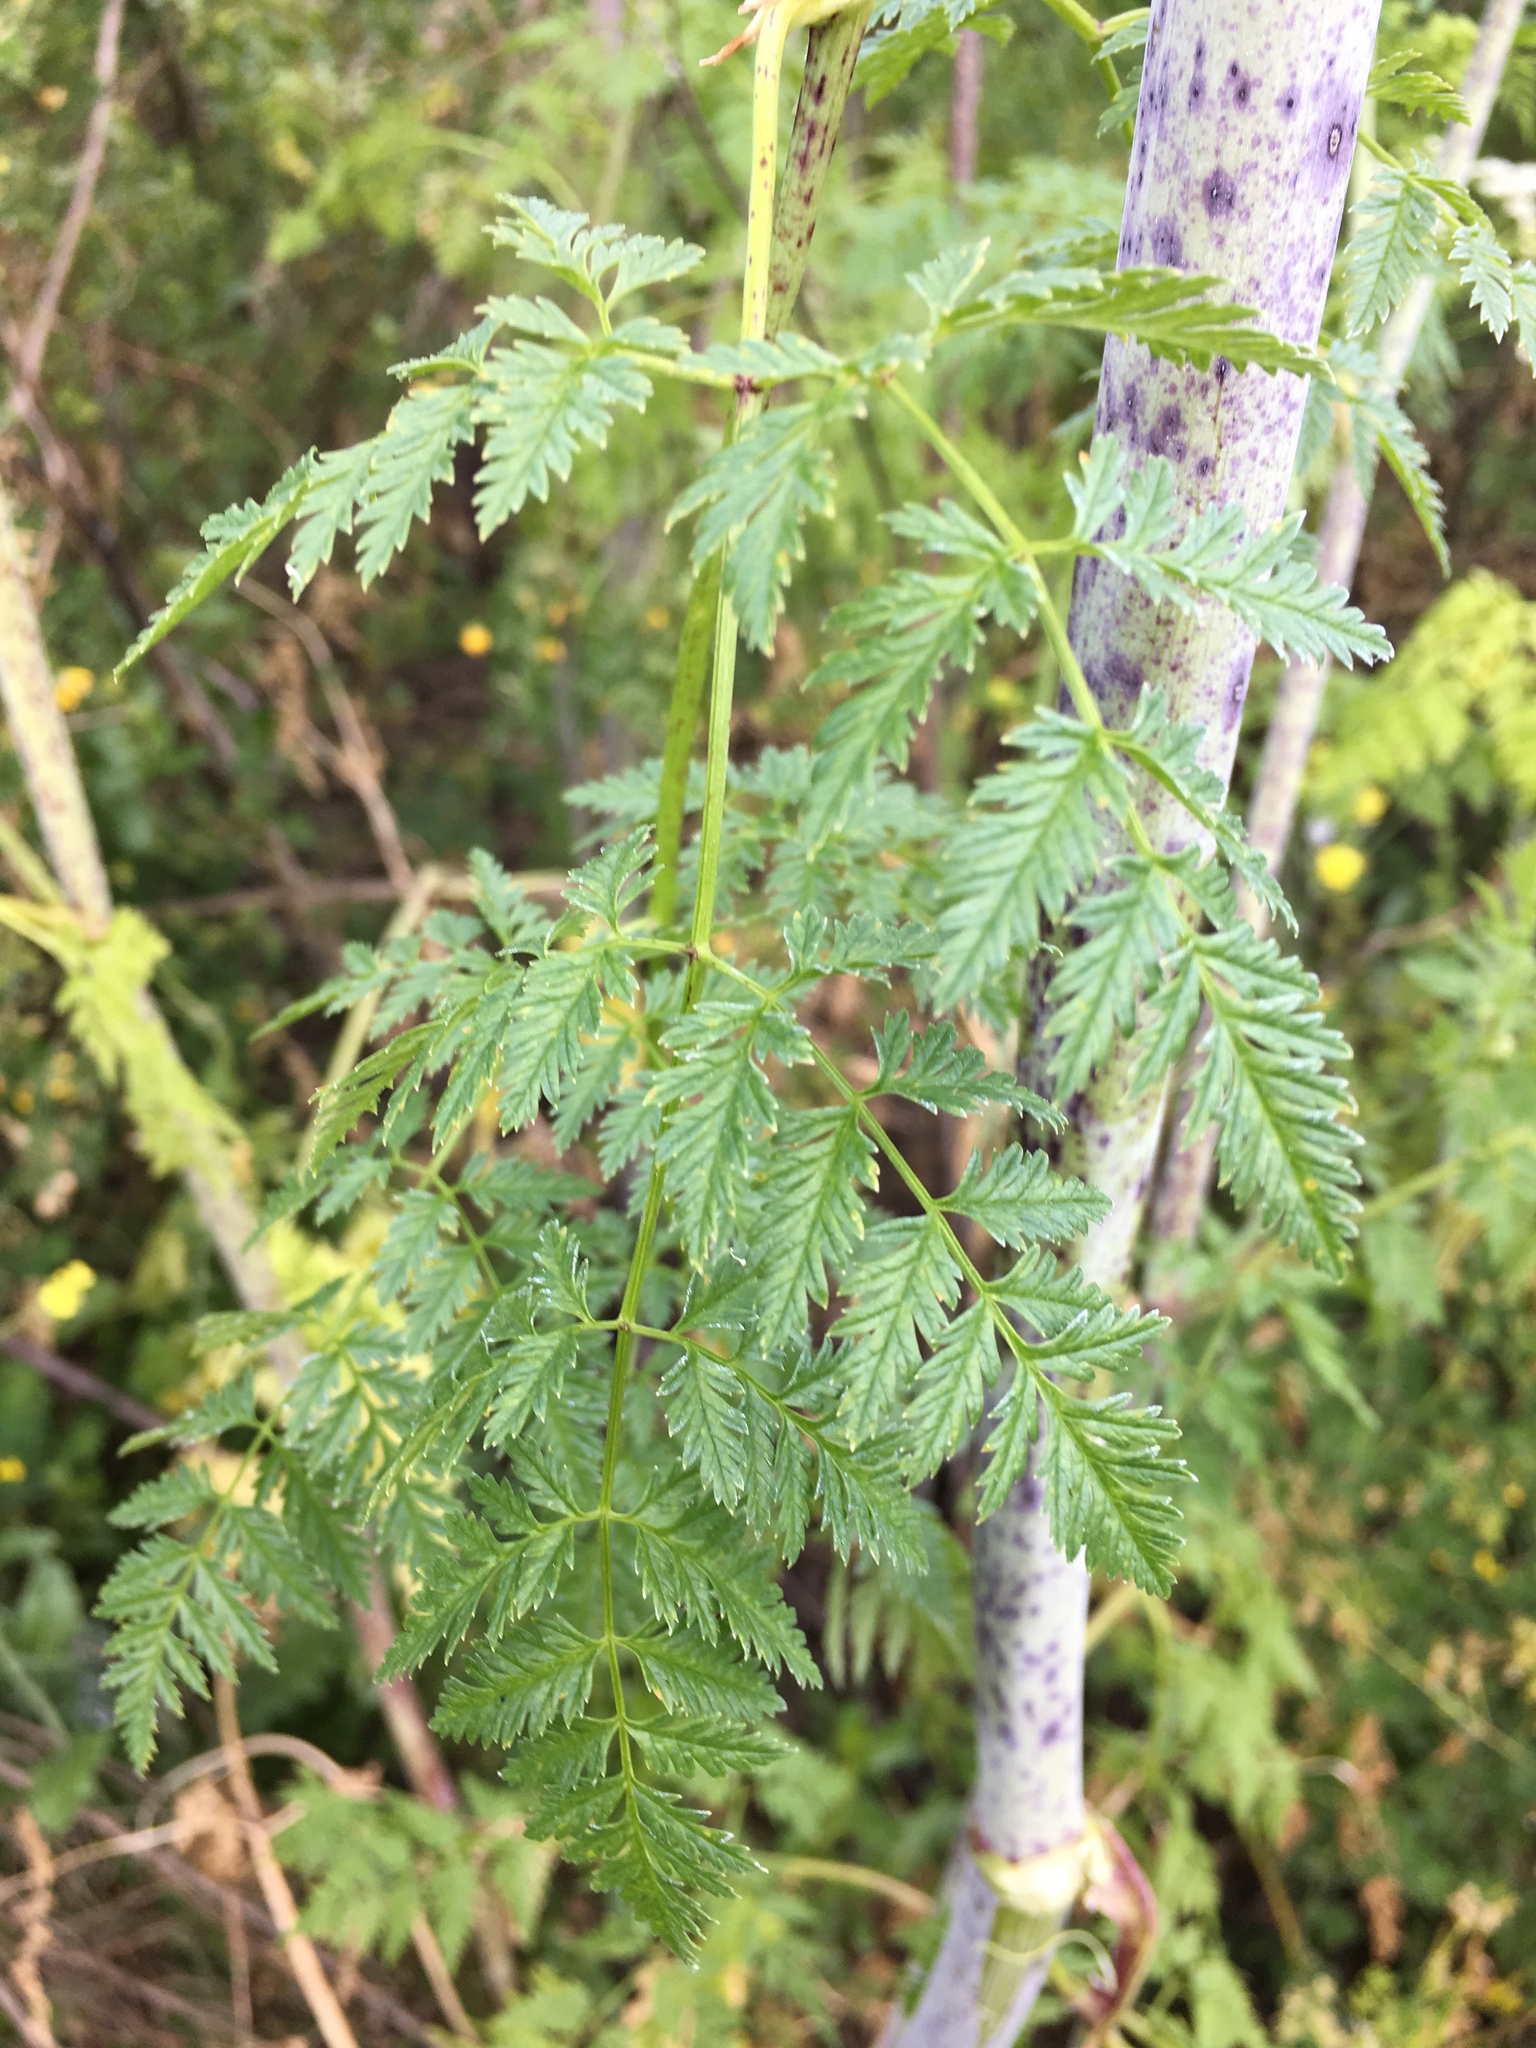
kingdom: Plantae
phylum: Tracheophyta
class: Magnoliopsida
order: Apiales
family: Apiaceae
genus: Conium
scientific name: Conium maculatum
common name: Hemlock
